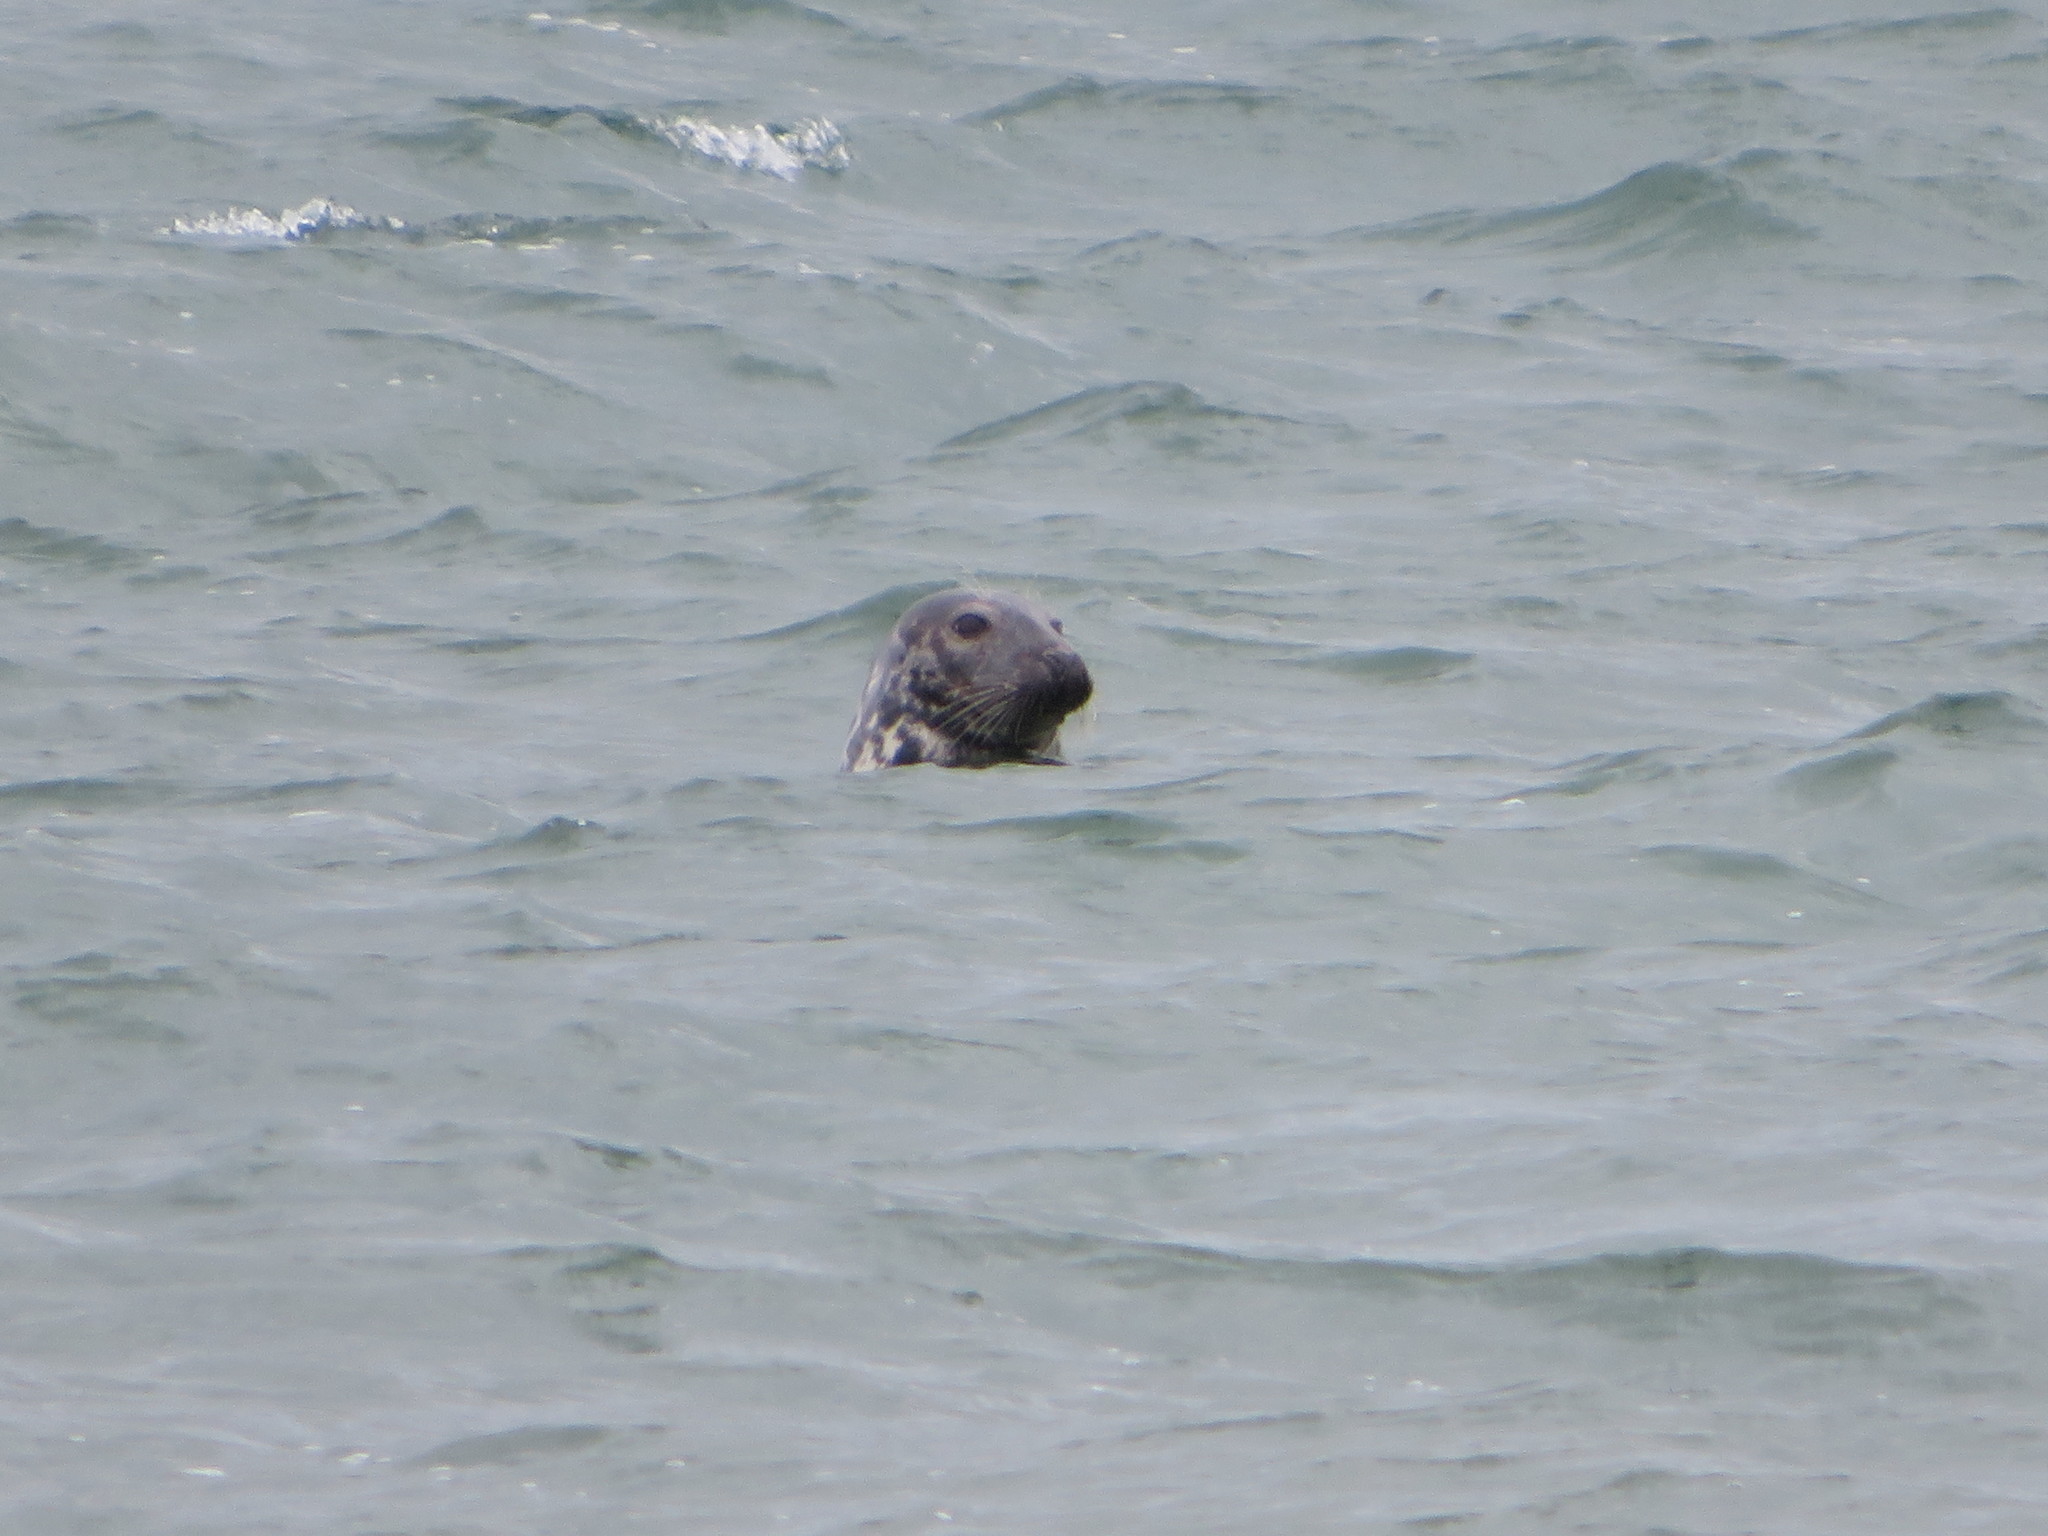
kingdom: Animalia
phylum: Chordata
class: Mammalia
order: Carnivora
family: Phocidae
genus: Halichoerus
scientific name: Halichoerus grypus
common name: Grey seal
